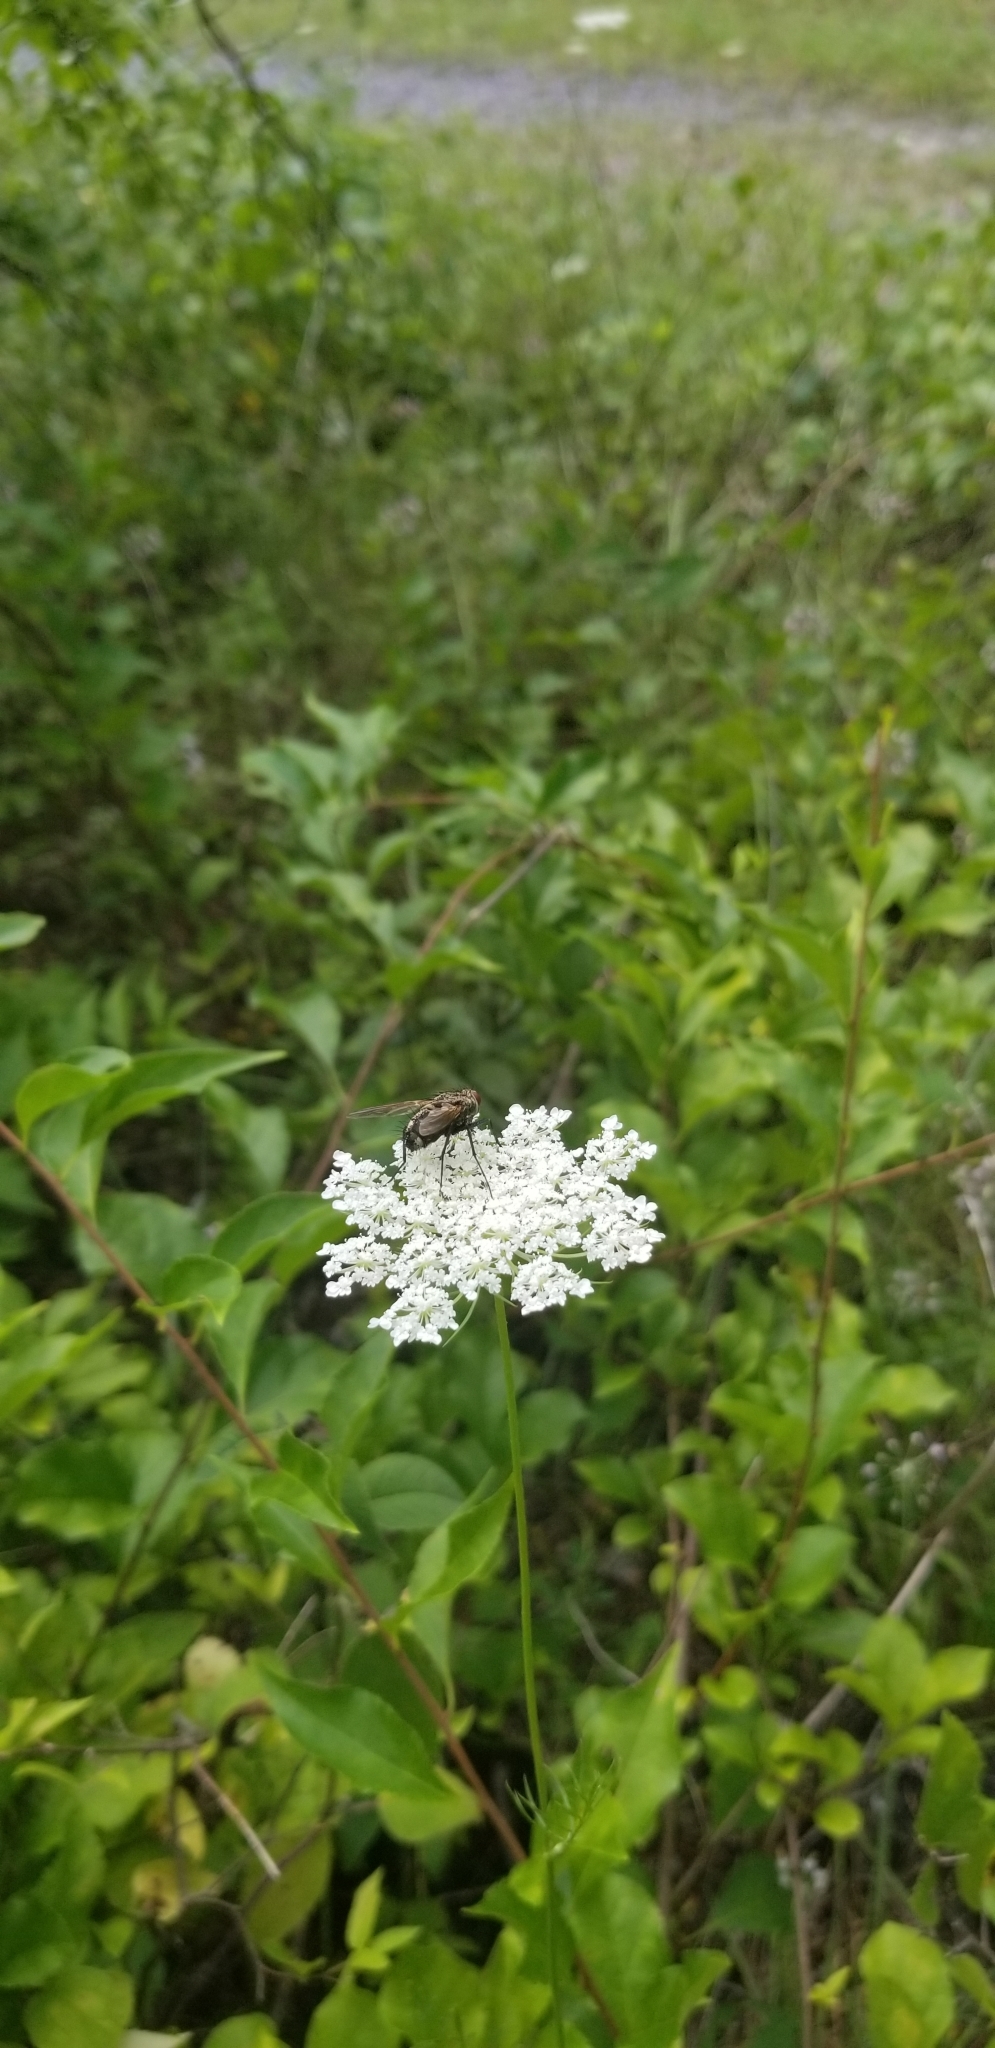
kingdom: Plantae
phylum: Tracheophyta
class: Magnoliopsida
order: Apiales
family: Apiaceae
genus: Daucus
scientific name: Daucus carota
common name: Wild carrot
